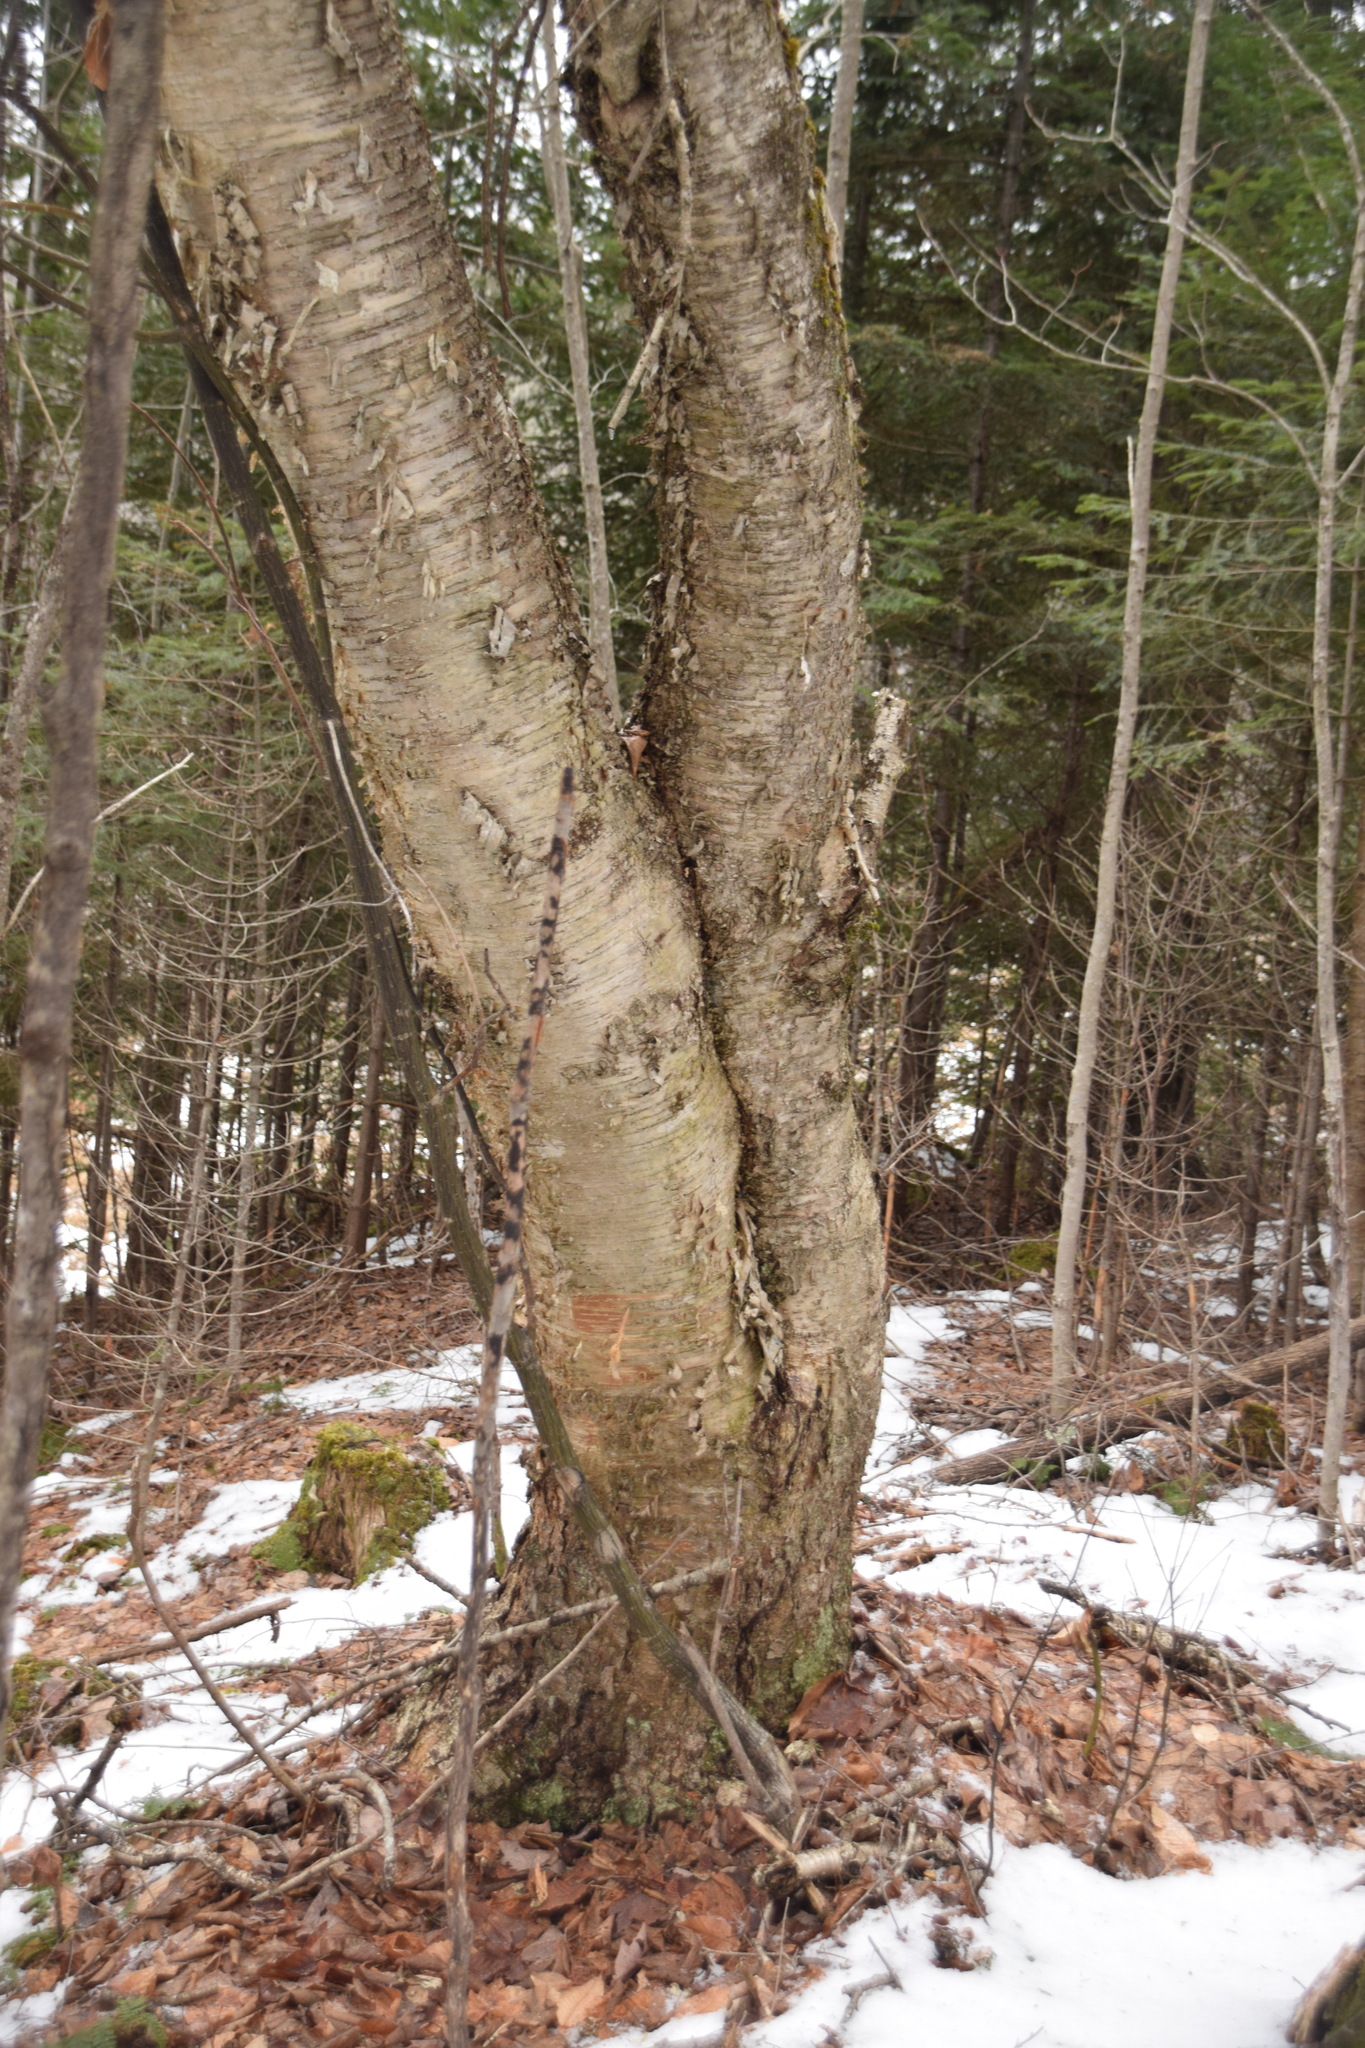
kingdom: Plantae
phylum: Tracheophyta
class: Magnoliopsida
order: Fagales
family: Betulaceae
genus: Betula
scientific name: Betula alleghaniensis
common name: Yellow birch
